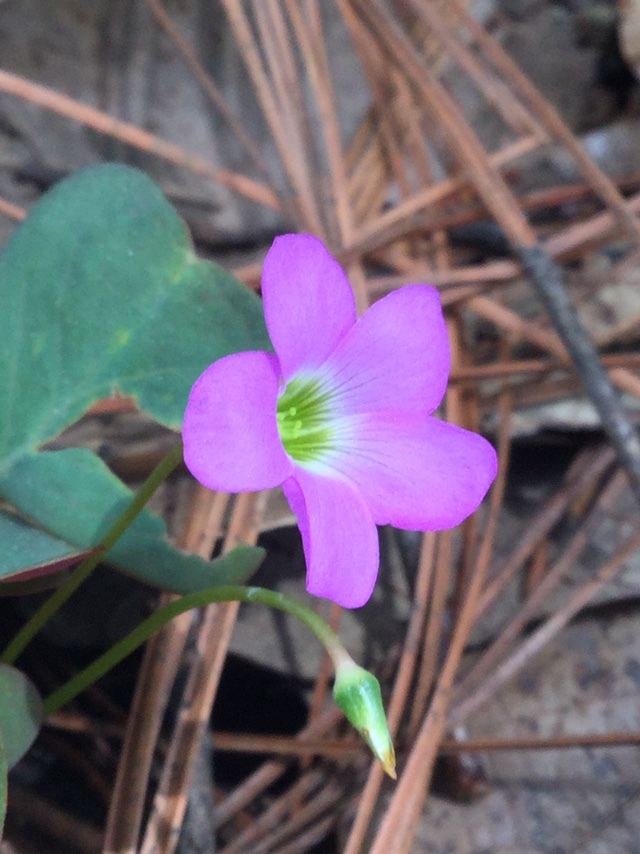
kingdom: Plantae
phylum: Tracheophyta
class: Magnoliopsida
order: Oxalidales
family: Oxalidaceae
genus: Oxalis
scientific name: Oxalis alpina
